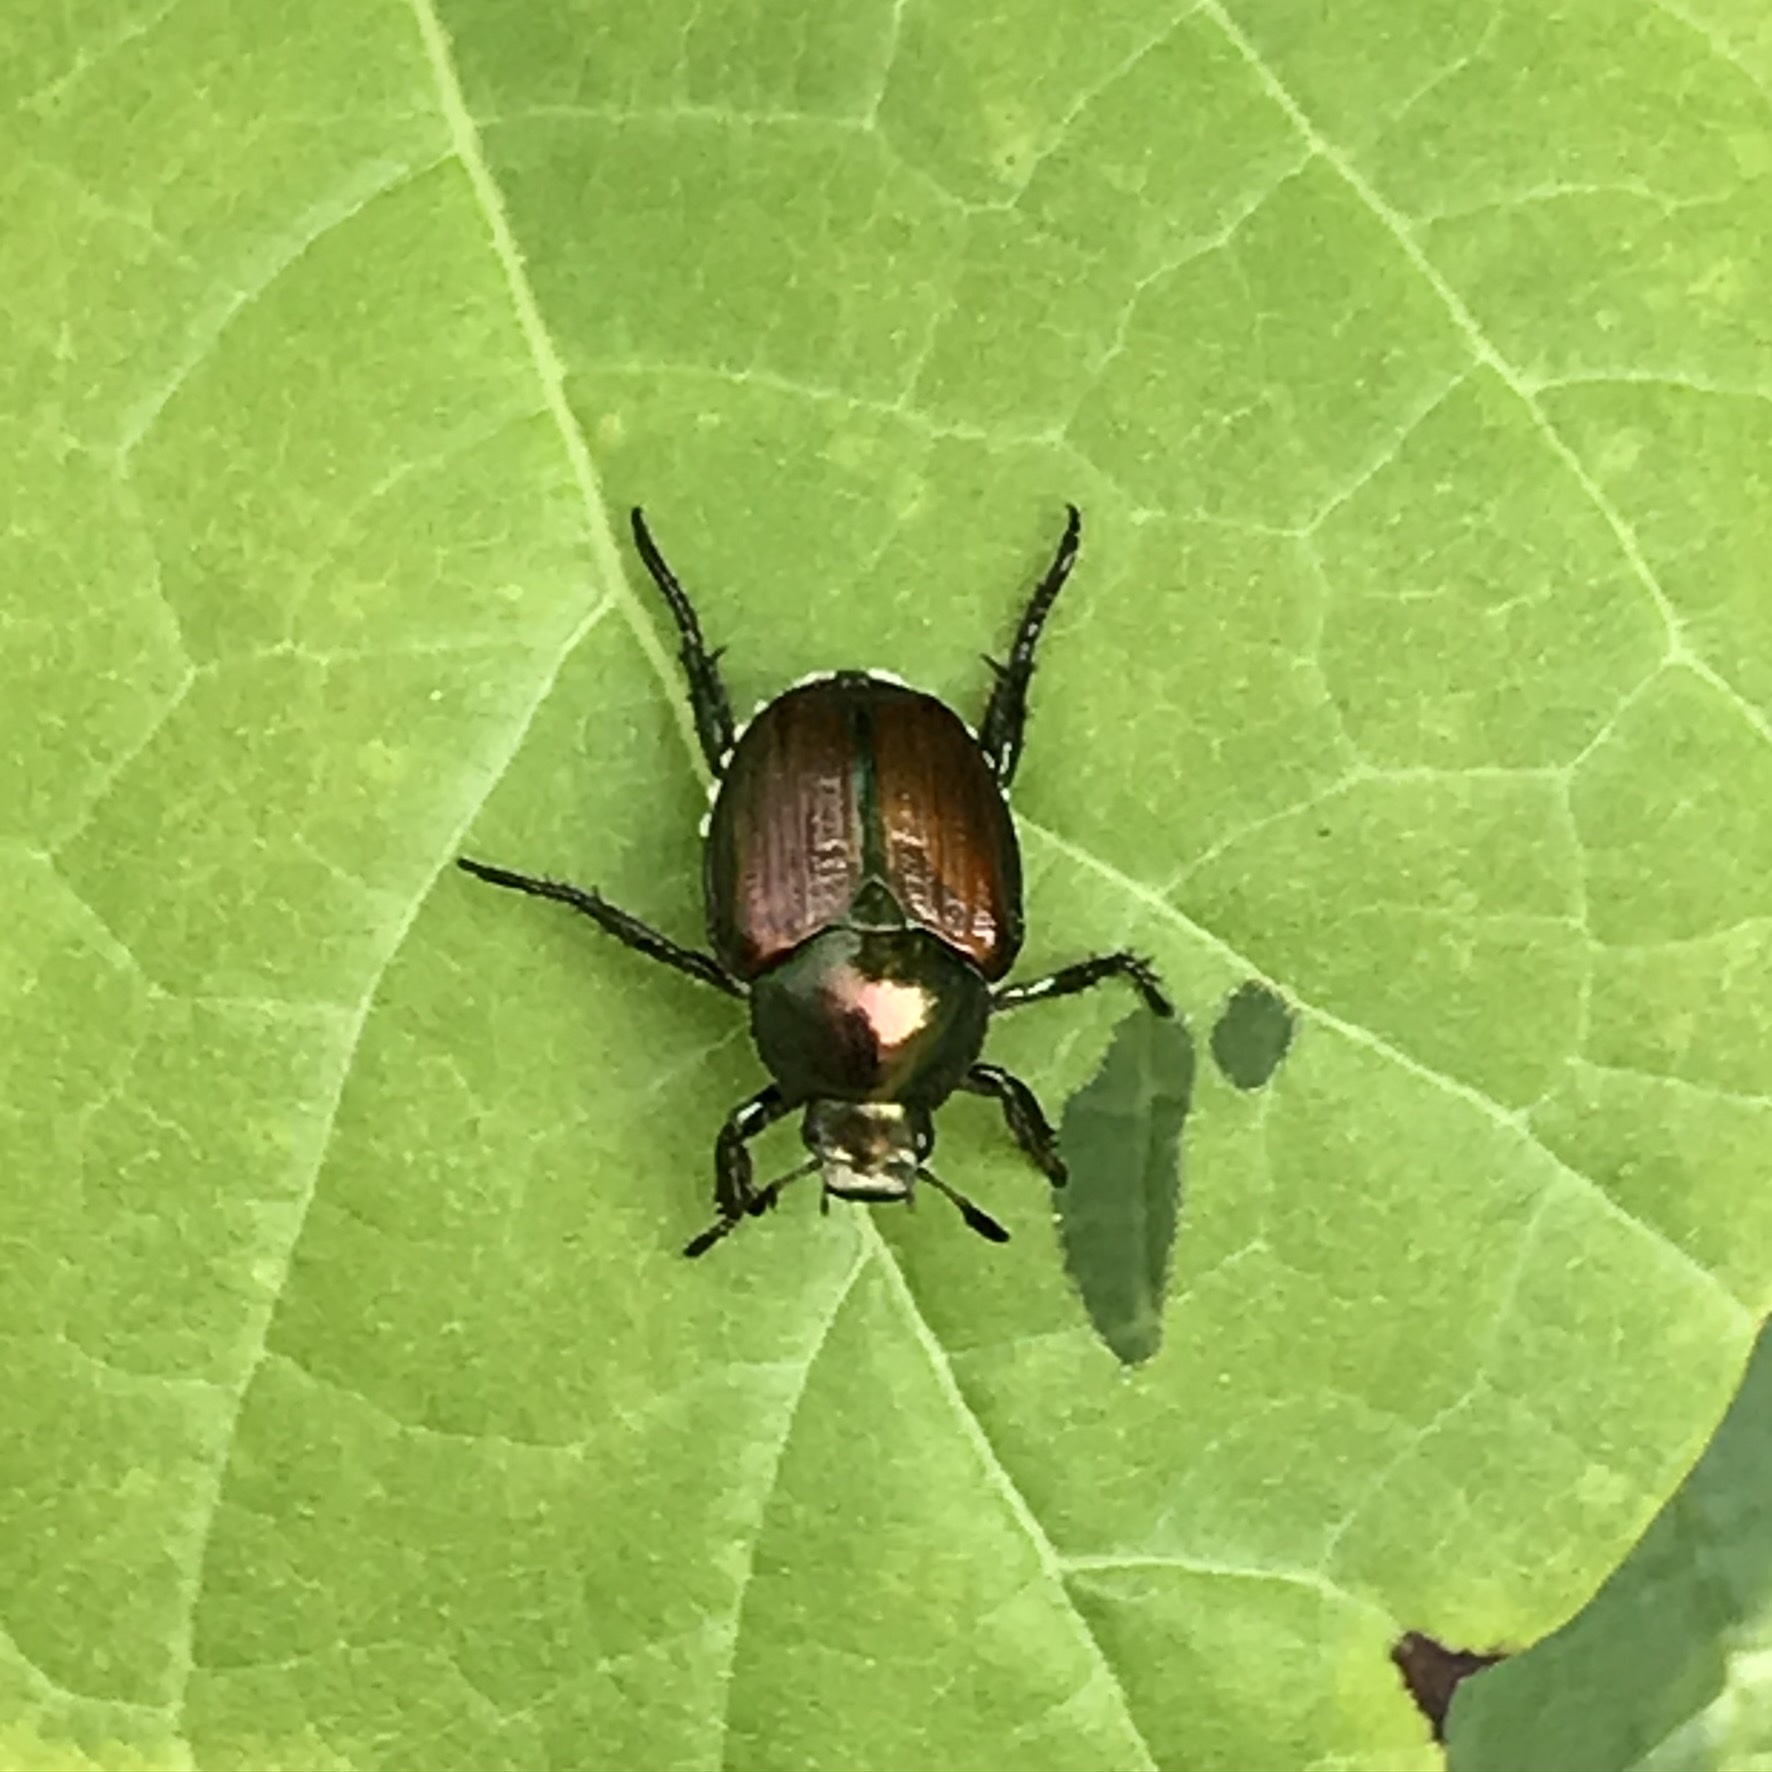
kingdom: Animalia
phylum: Arthropoda
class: Insecta
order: Coleoptera
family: Scarabaeidae
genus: Popillia
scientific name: Popillia japonica
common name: Japanese beetle
